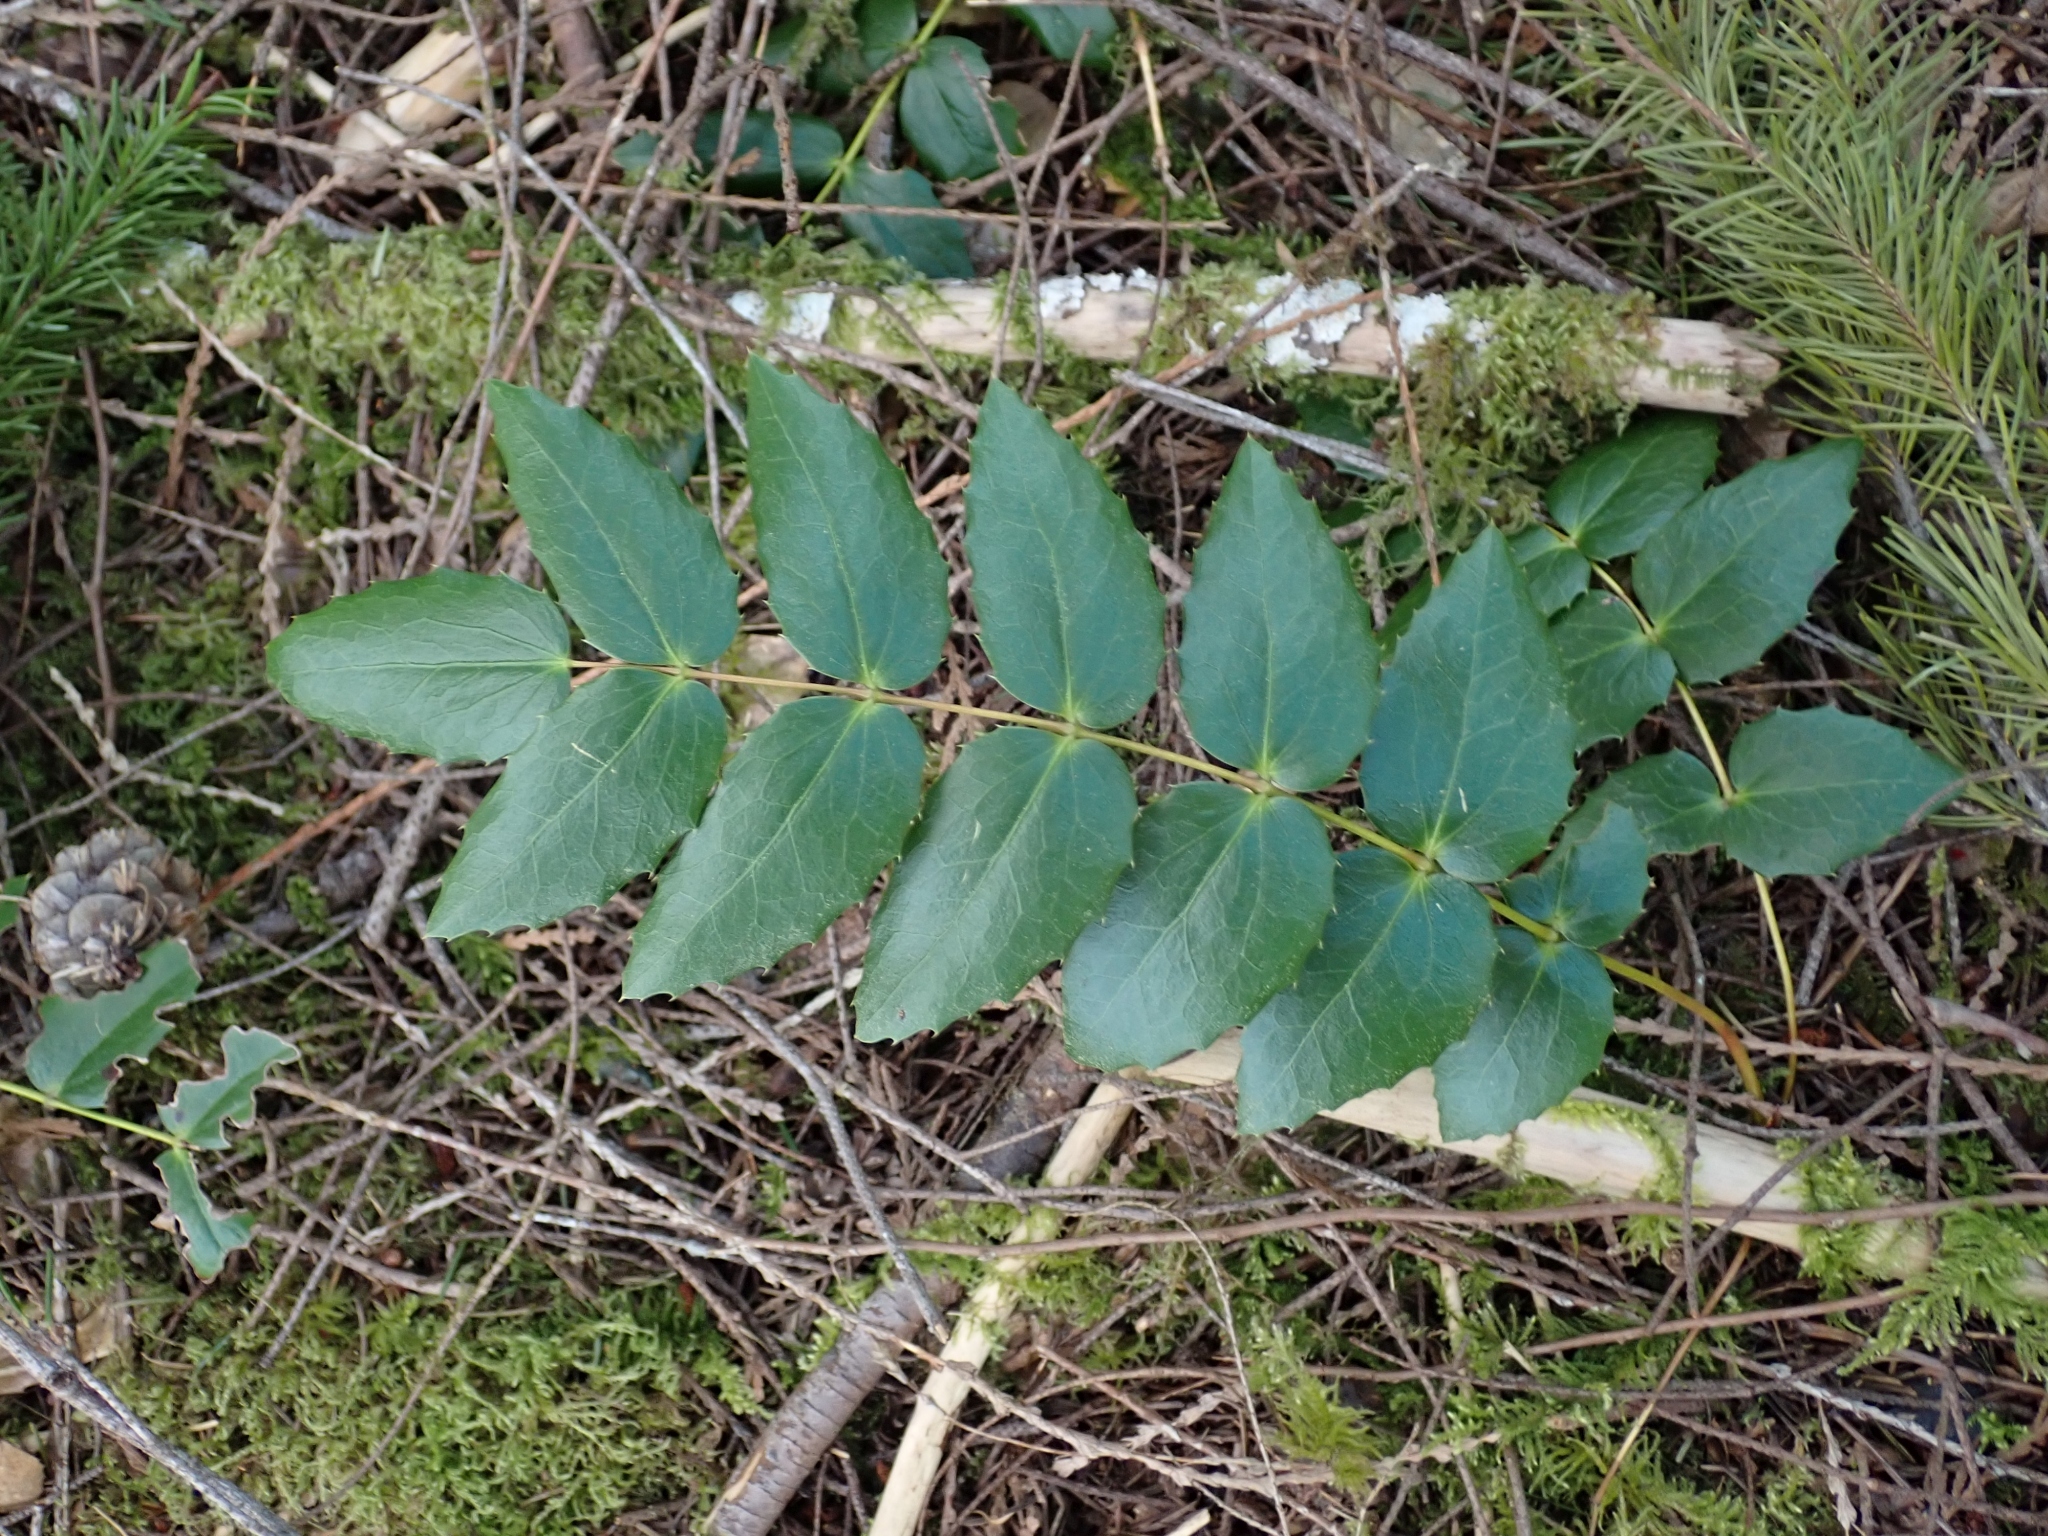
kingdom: Plantae
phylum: Tracheophyta
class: Magnoliopsida
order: Ranunculales
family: Berberidaceae
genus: Mahonia
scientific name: Mahonia nervosa
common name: Cascade oregon-grape
